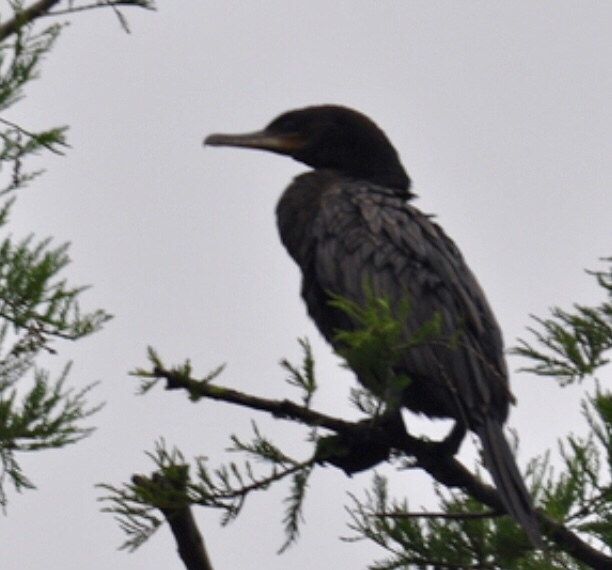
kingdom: Animalia
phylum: Chordata
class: Aves
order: Suliformes
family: Phalacrocoracidae
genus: Phalacrocorax
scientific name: Phalacrocorax brasilianus
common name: Neotropic cormorant
